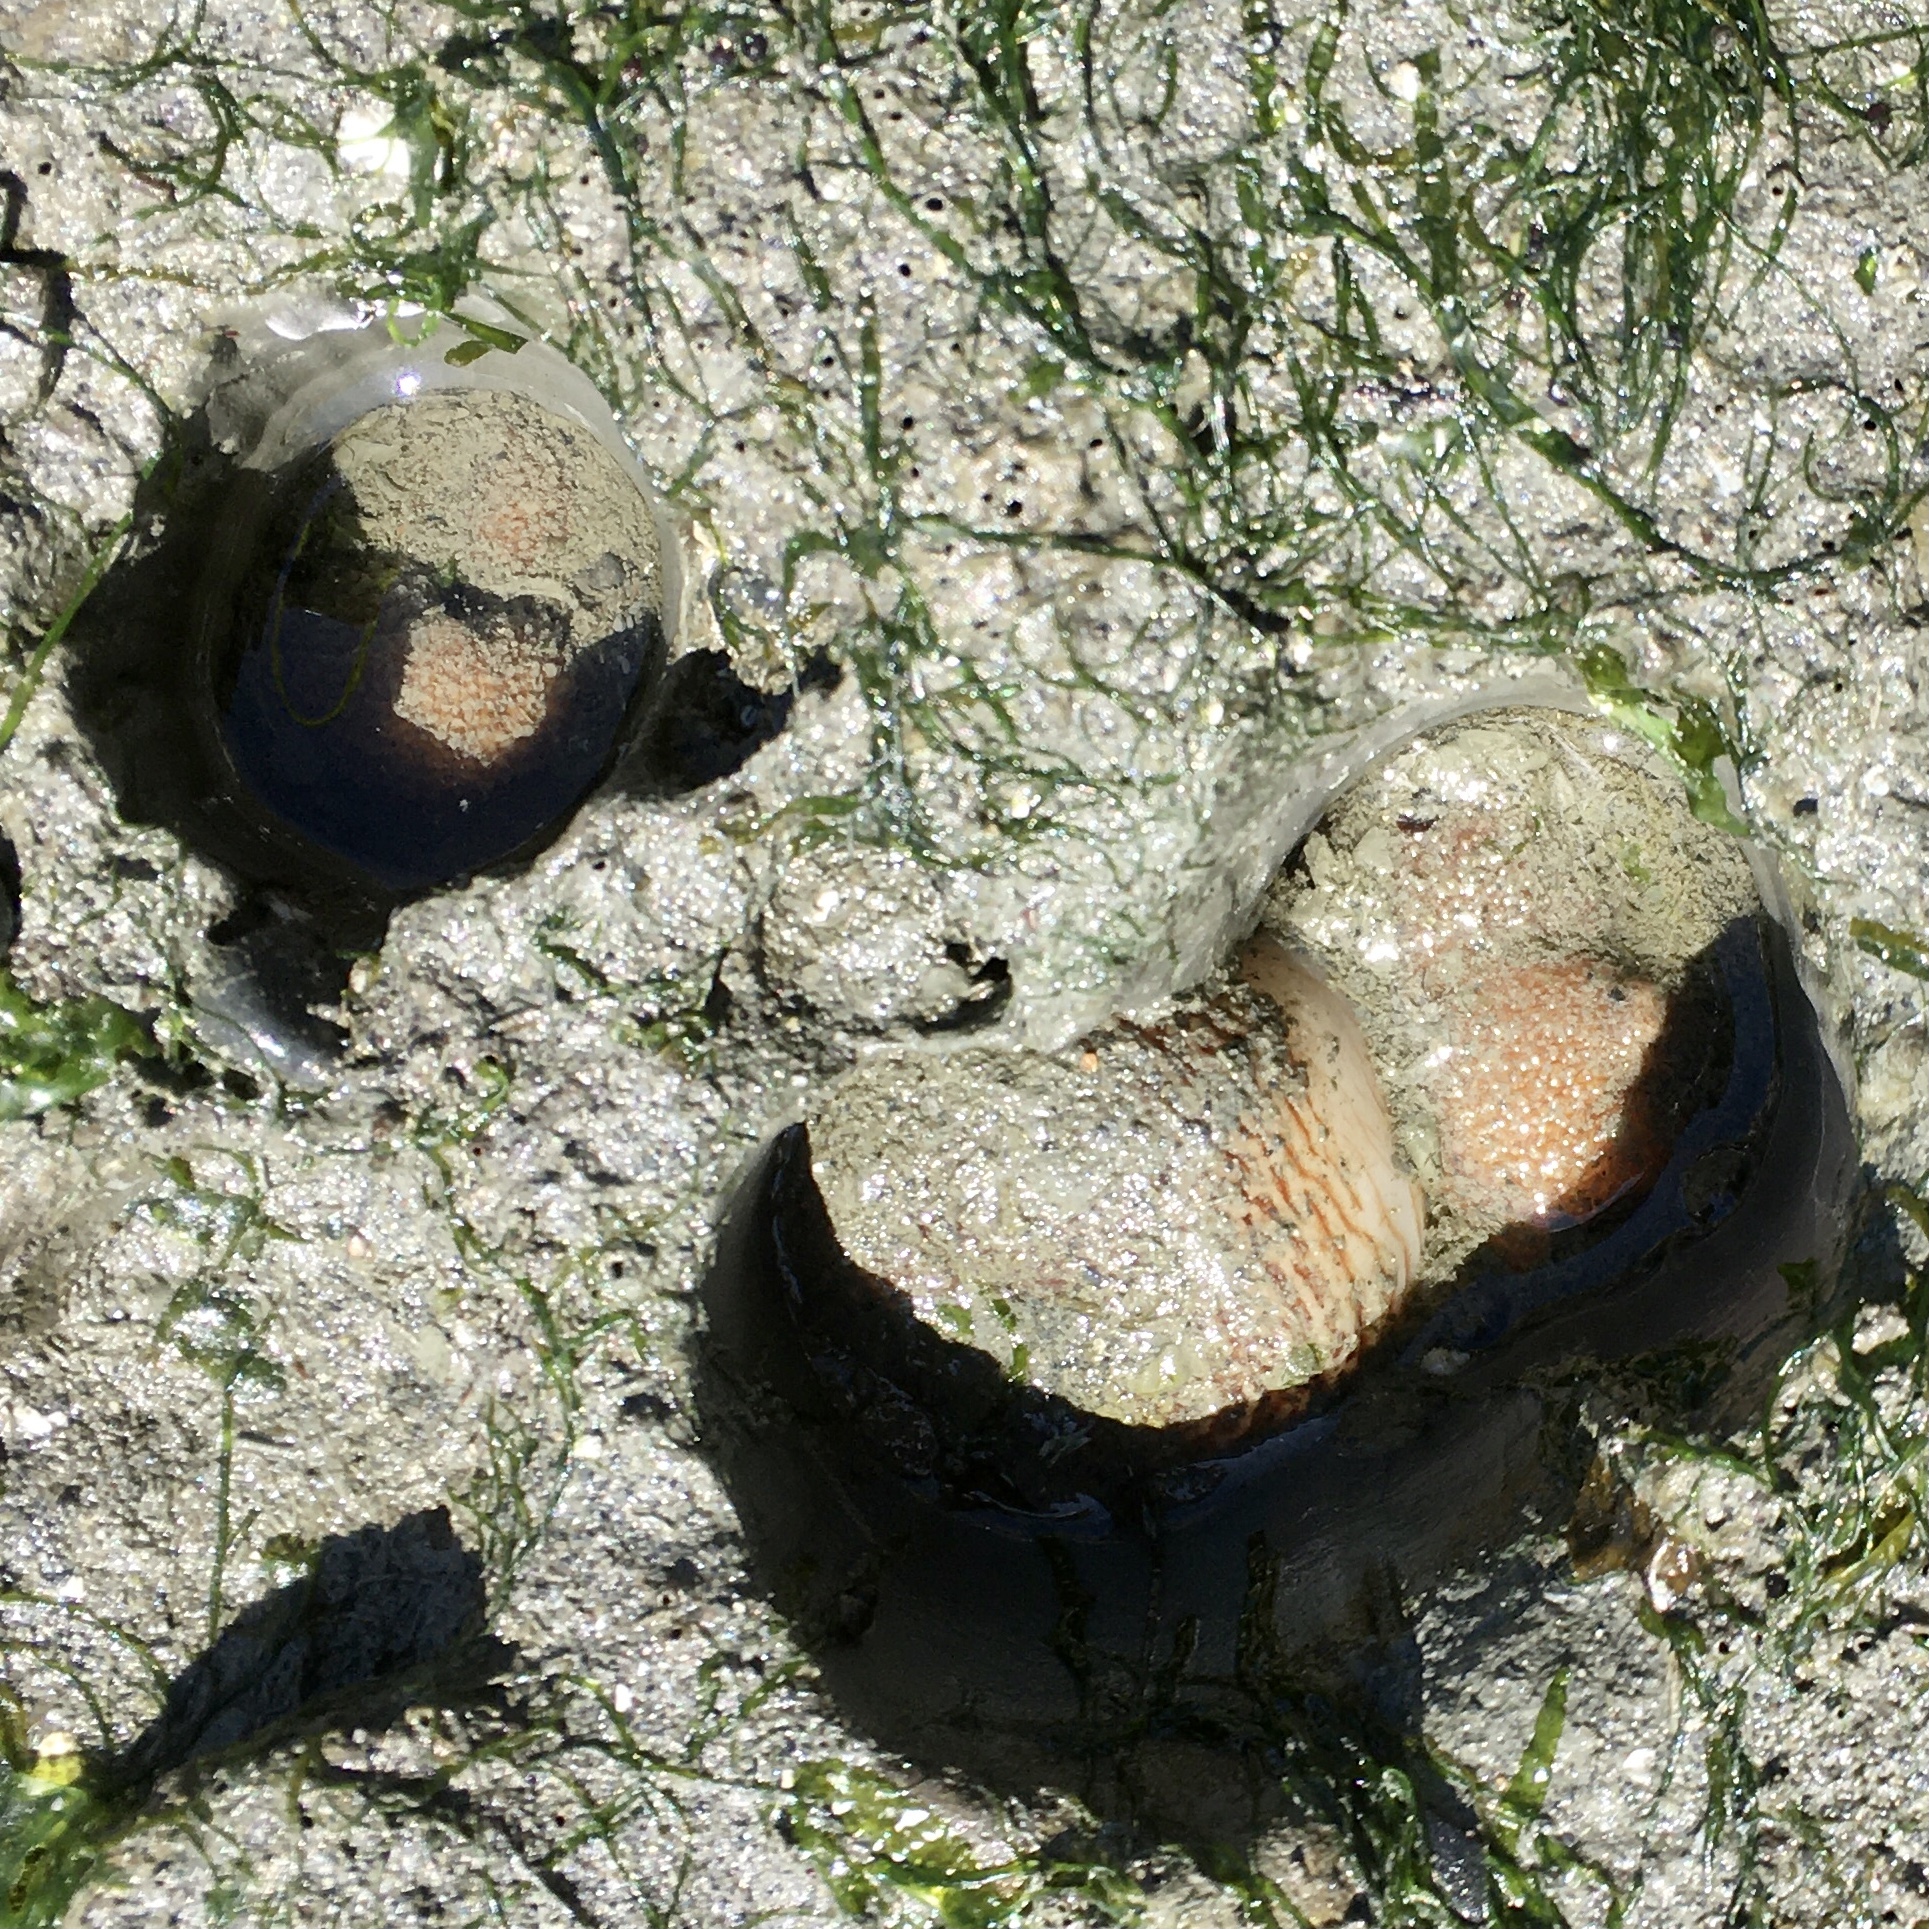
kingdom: Animalia
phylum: Mollusca
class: Bivalvia
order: Myida
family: Pholadidae
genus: Zirfaea
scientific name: Zirfaea pilsbryi
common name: Rough piddock
